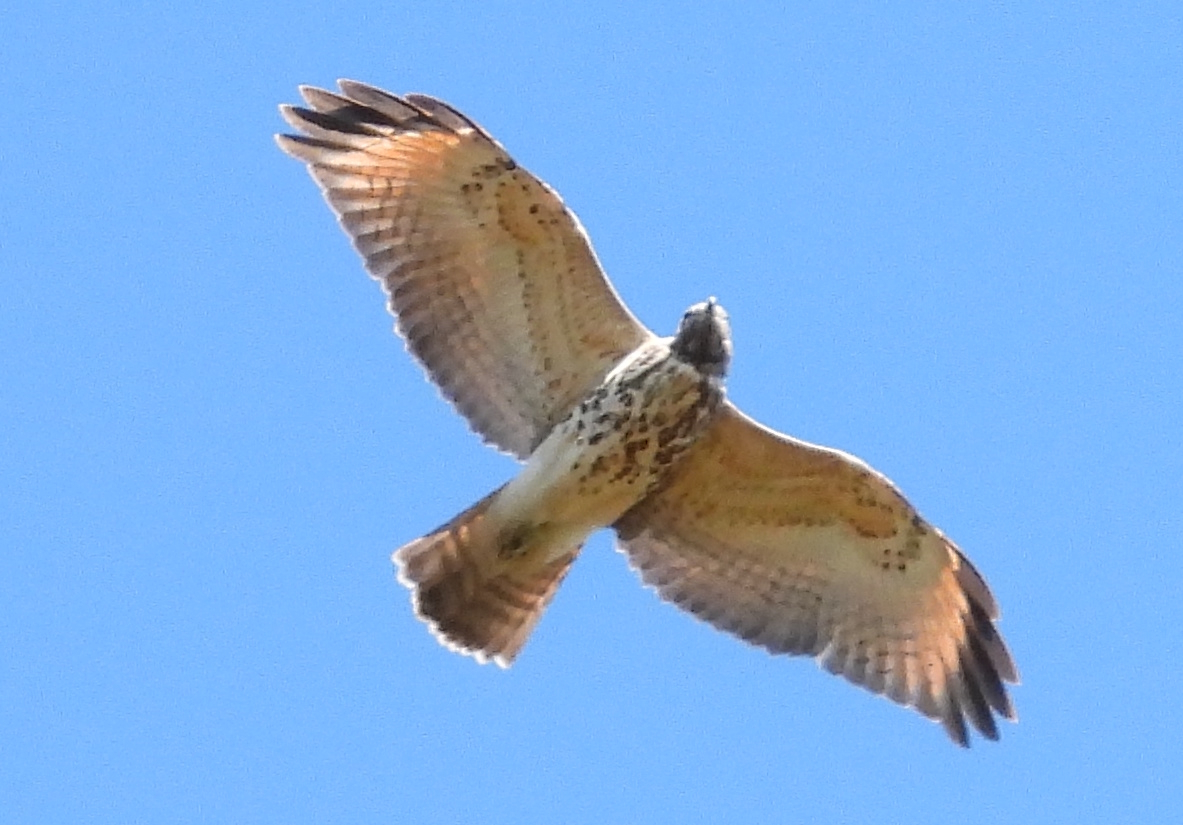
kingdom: Animalia
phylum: Chordata
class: Aves
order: Accipitriformes
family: Accipitridae
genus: Buteo
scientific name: Buteo lineatus
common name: Red-shouldered hawk
